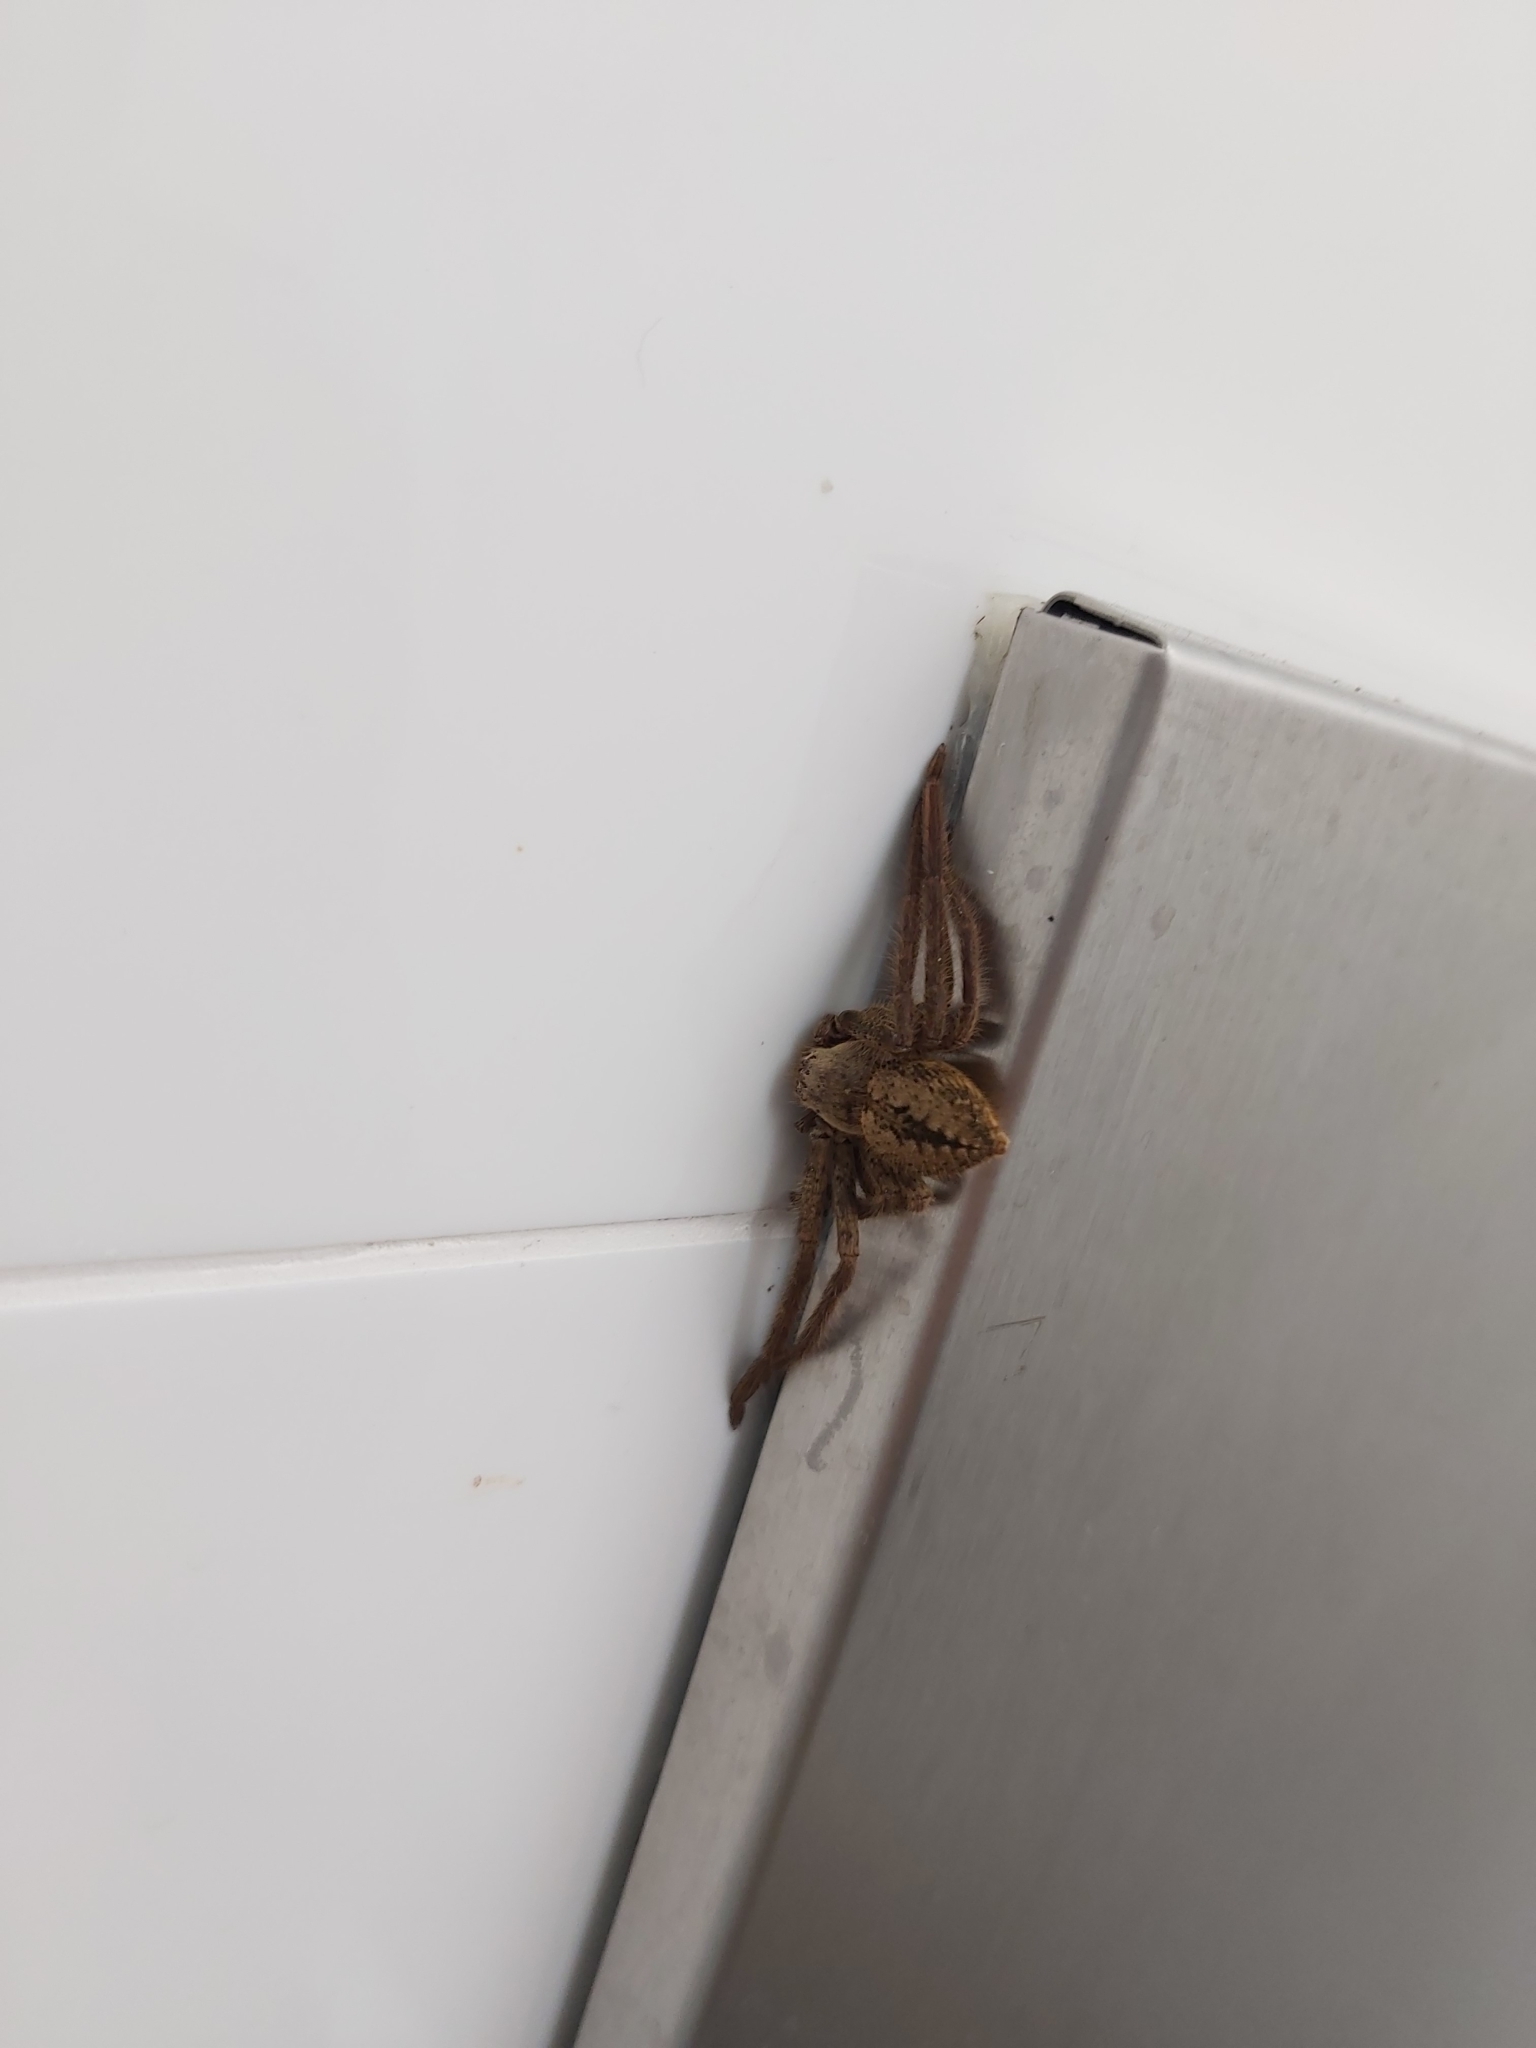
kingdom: Animalia
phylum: Arthropoda
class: Arachnida
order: Araneae
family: Sparassidae
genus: Beregama
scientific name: Beregama cordata
